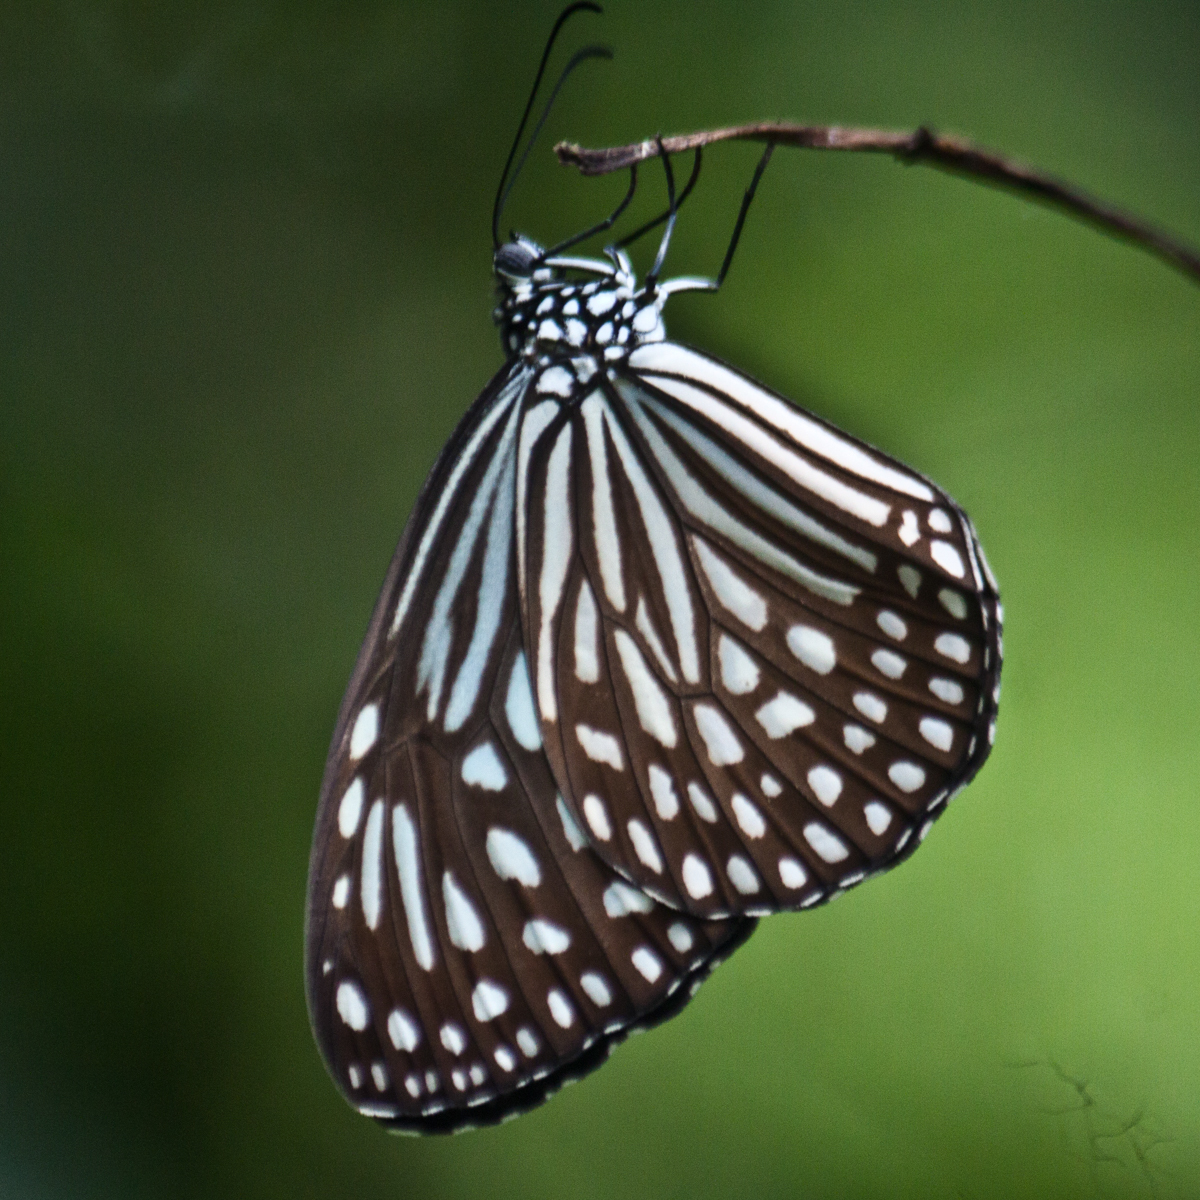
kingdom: Animalia
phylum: Arthropoda
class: Insecta
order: Lepidoptera
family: Nymphalidae
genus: Parantica
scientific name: Parantica agleoides
